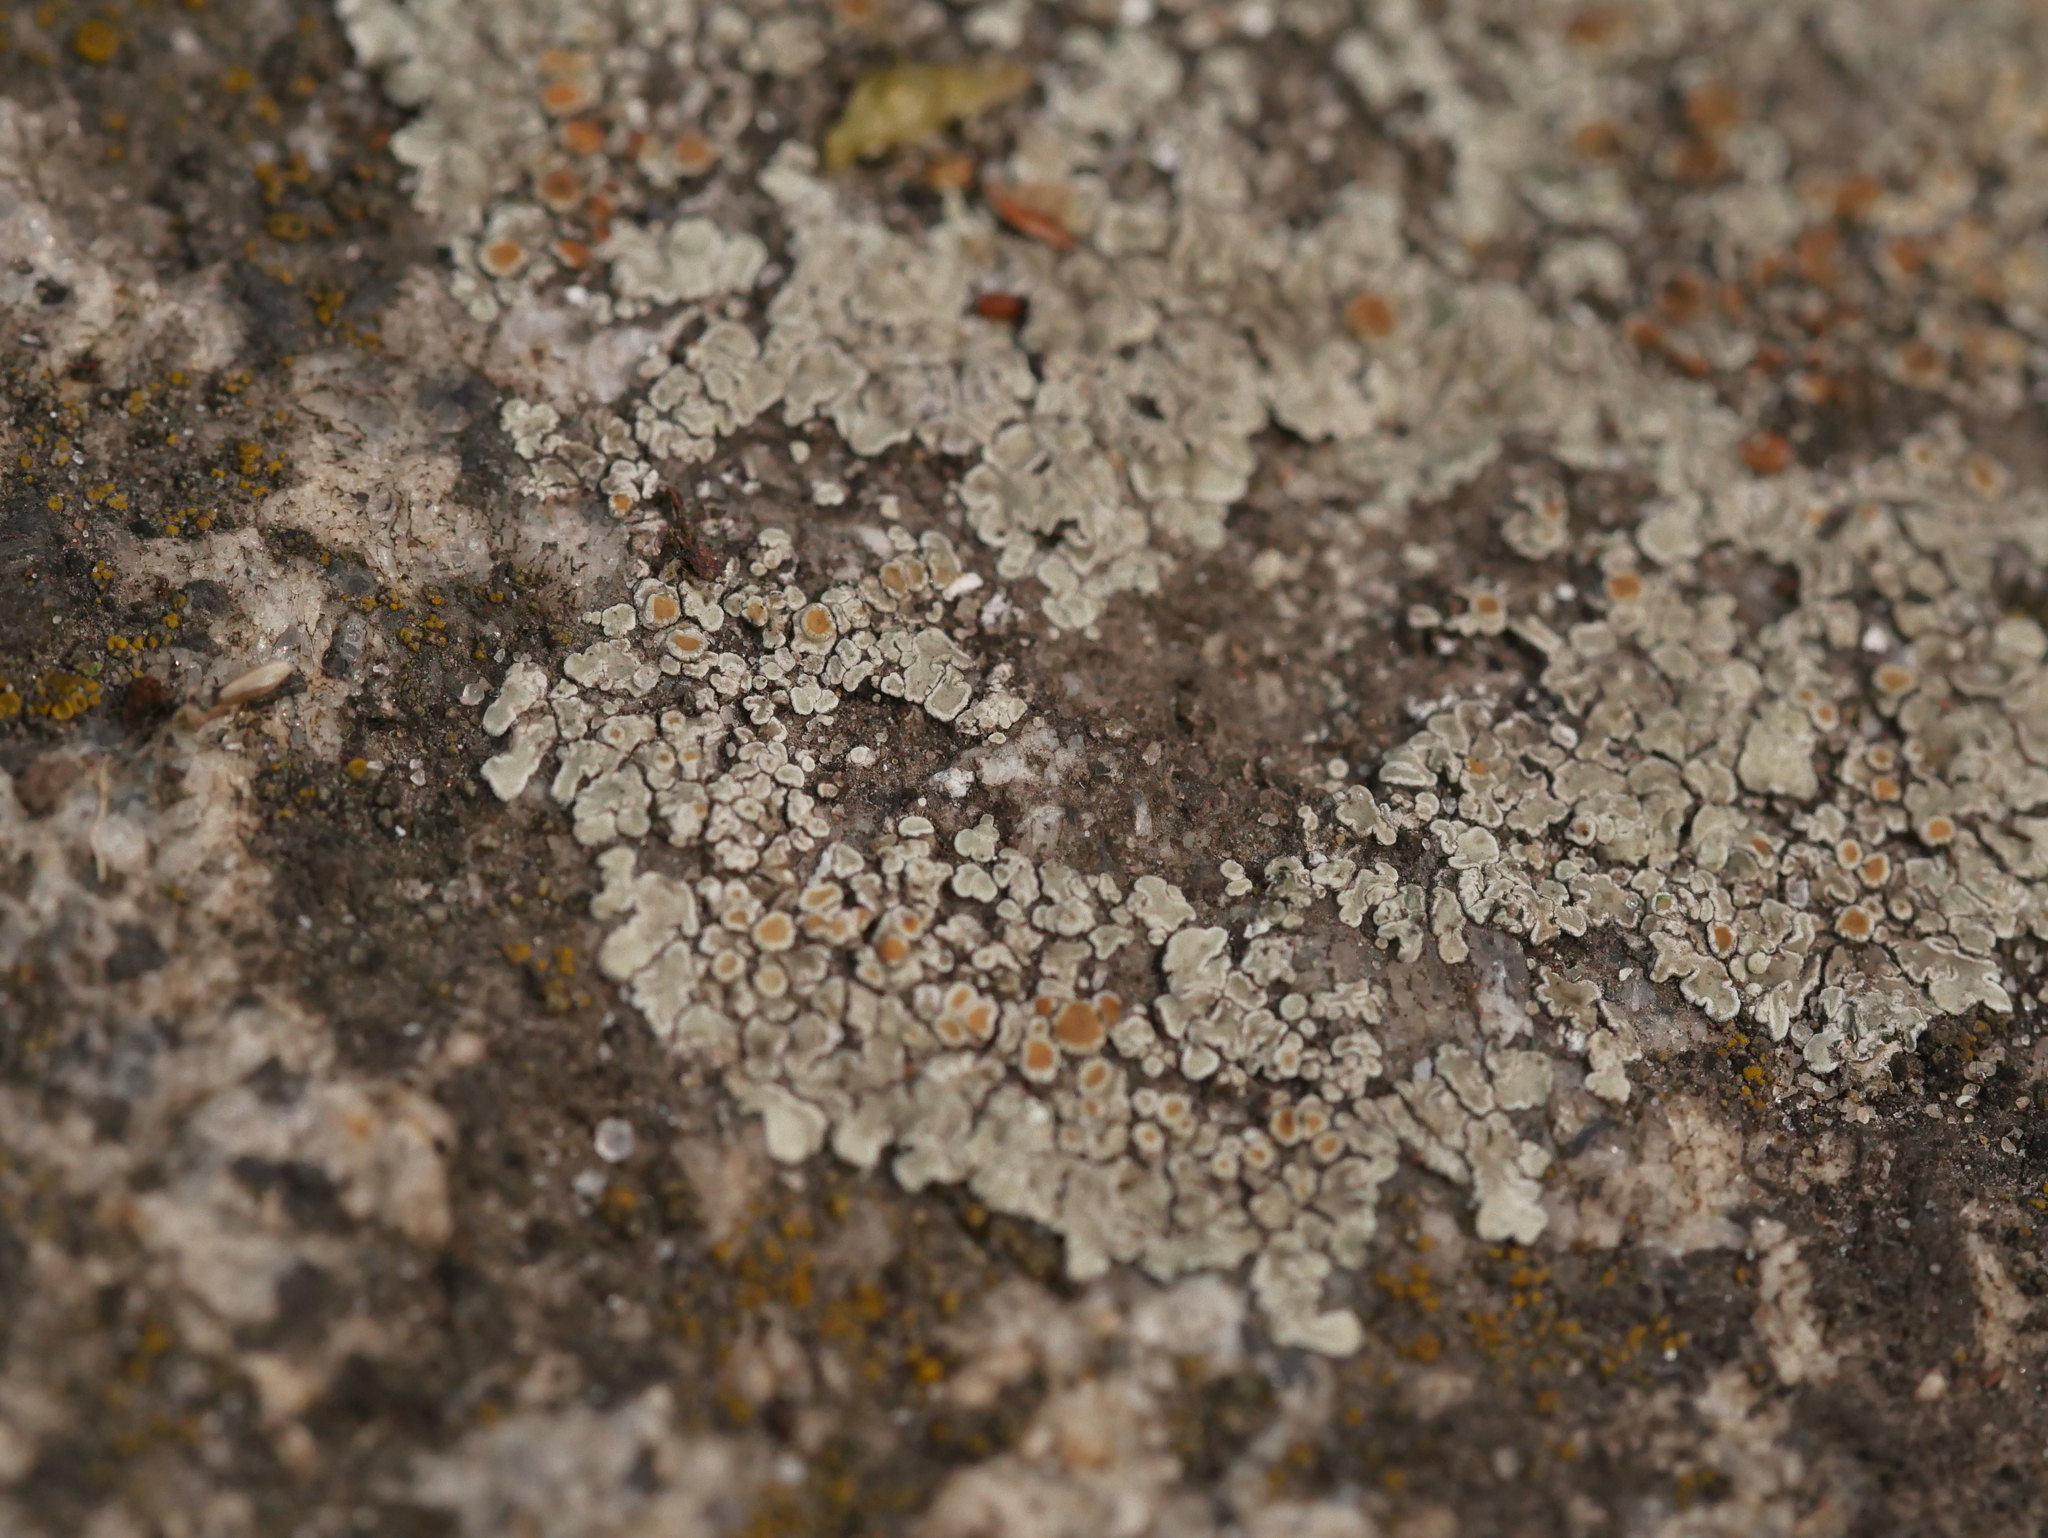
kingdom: Fungi
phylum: Ascomycota
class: Lecanoromycetes
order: Lecanorales
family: Lecanoraceae
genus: Protoparmeliopsis
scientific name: Protoparmeliopsis muralis
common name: Stonewall rim lichen
